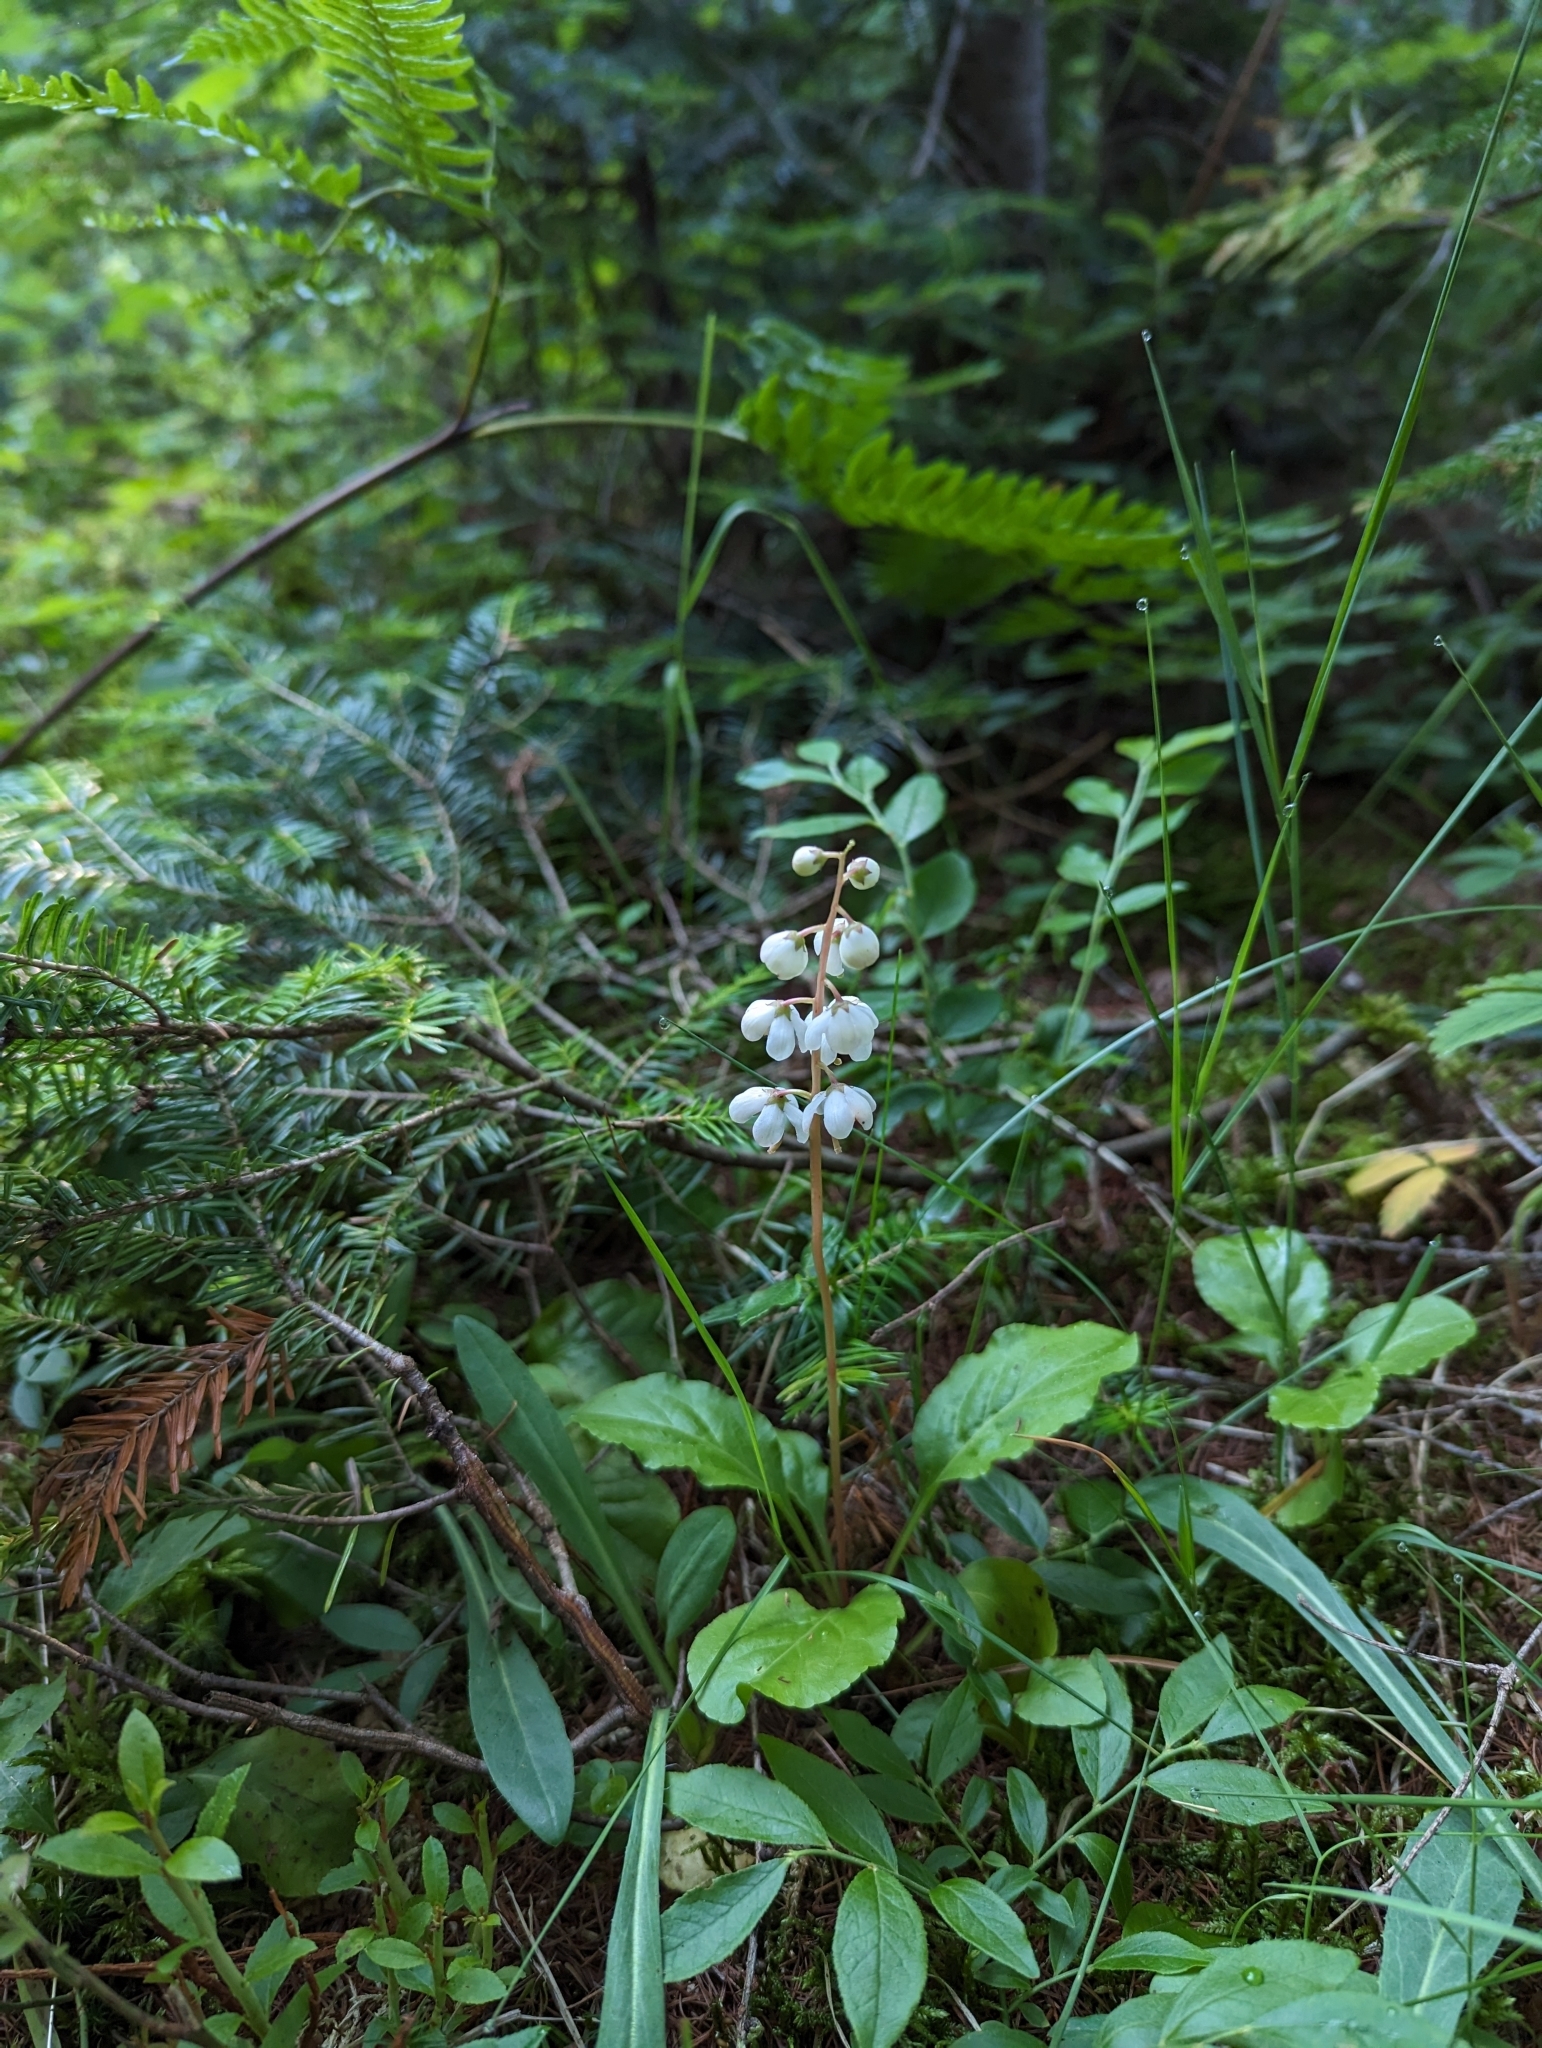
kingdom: Plantae
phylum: Tracheophyta
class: Magnoliopsida
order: Ericales
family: Ericaceae
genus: Pyrola
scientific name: Pyrola elliptica
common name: Shinleaf
